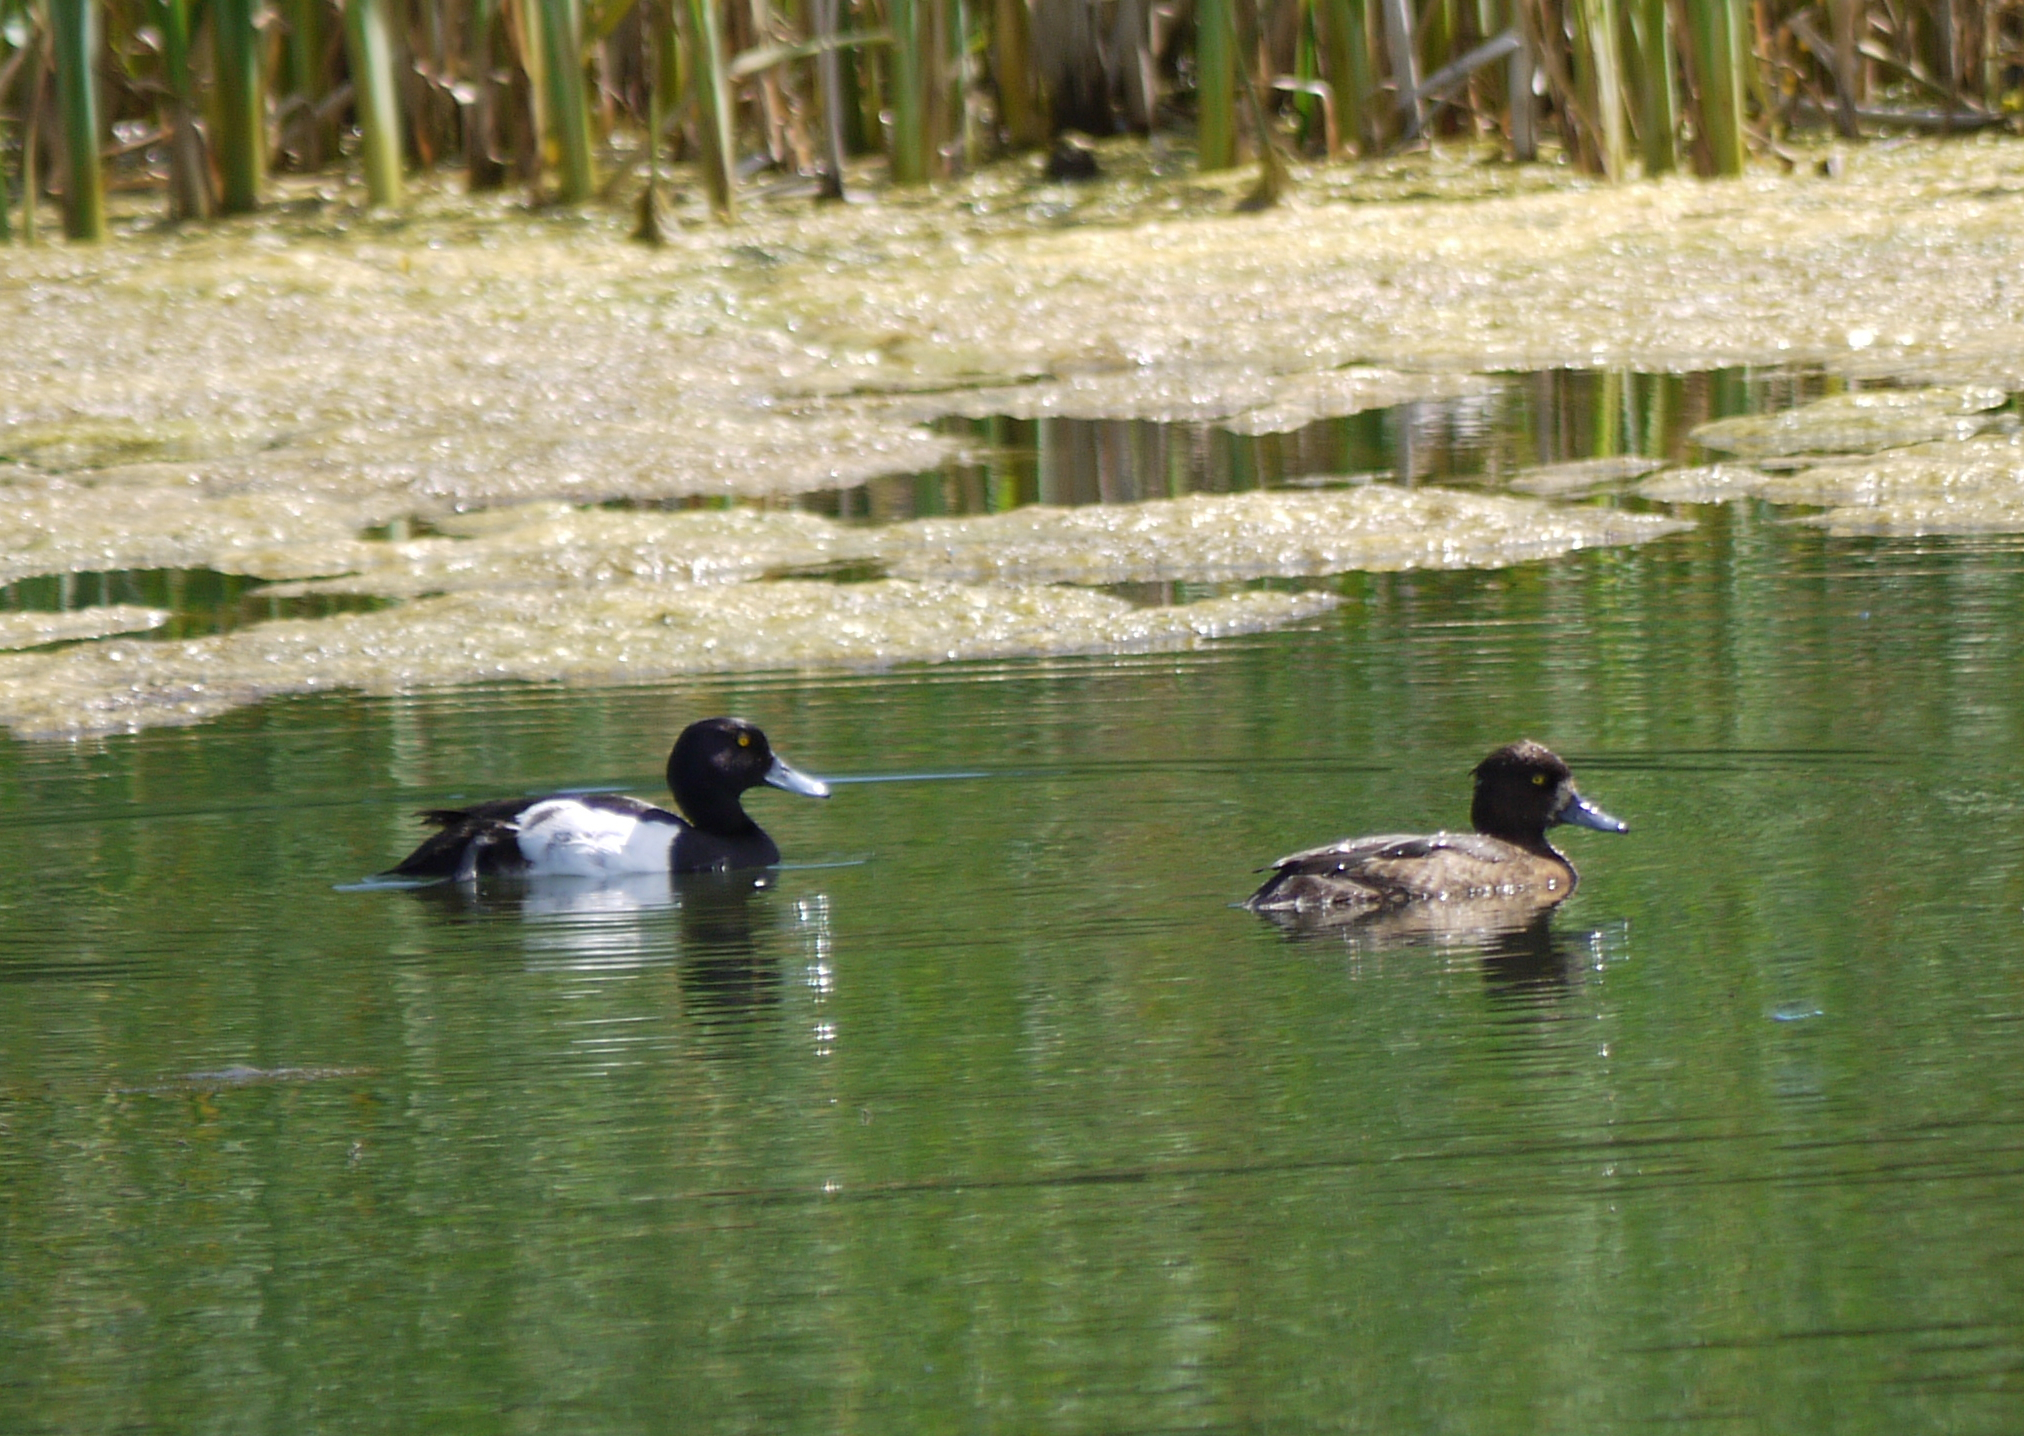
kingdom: Animalia
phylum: Chordata
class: Aves
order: Anseriformes
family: Anatidae
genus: Aythya
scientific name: Aythya fuligula
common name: Tufted duck
